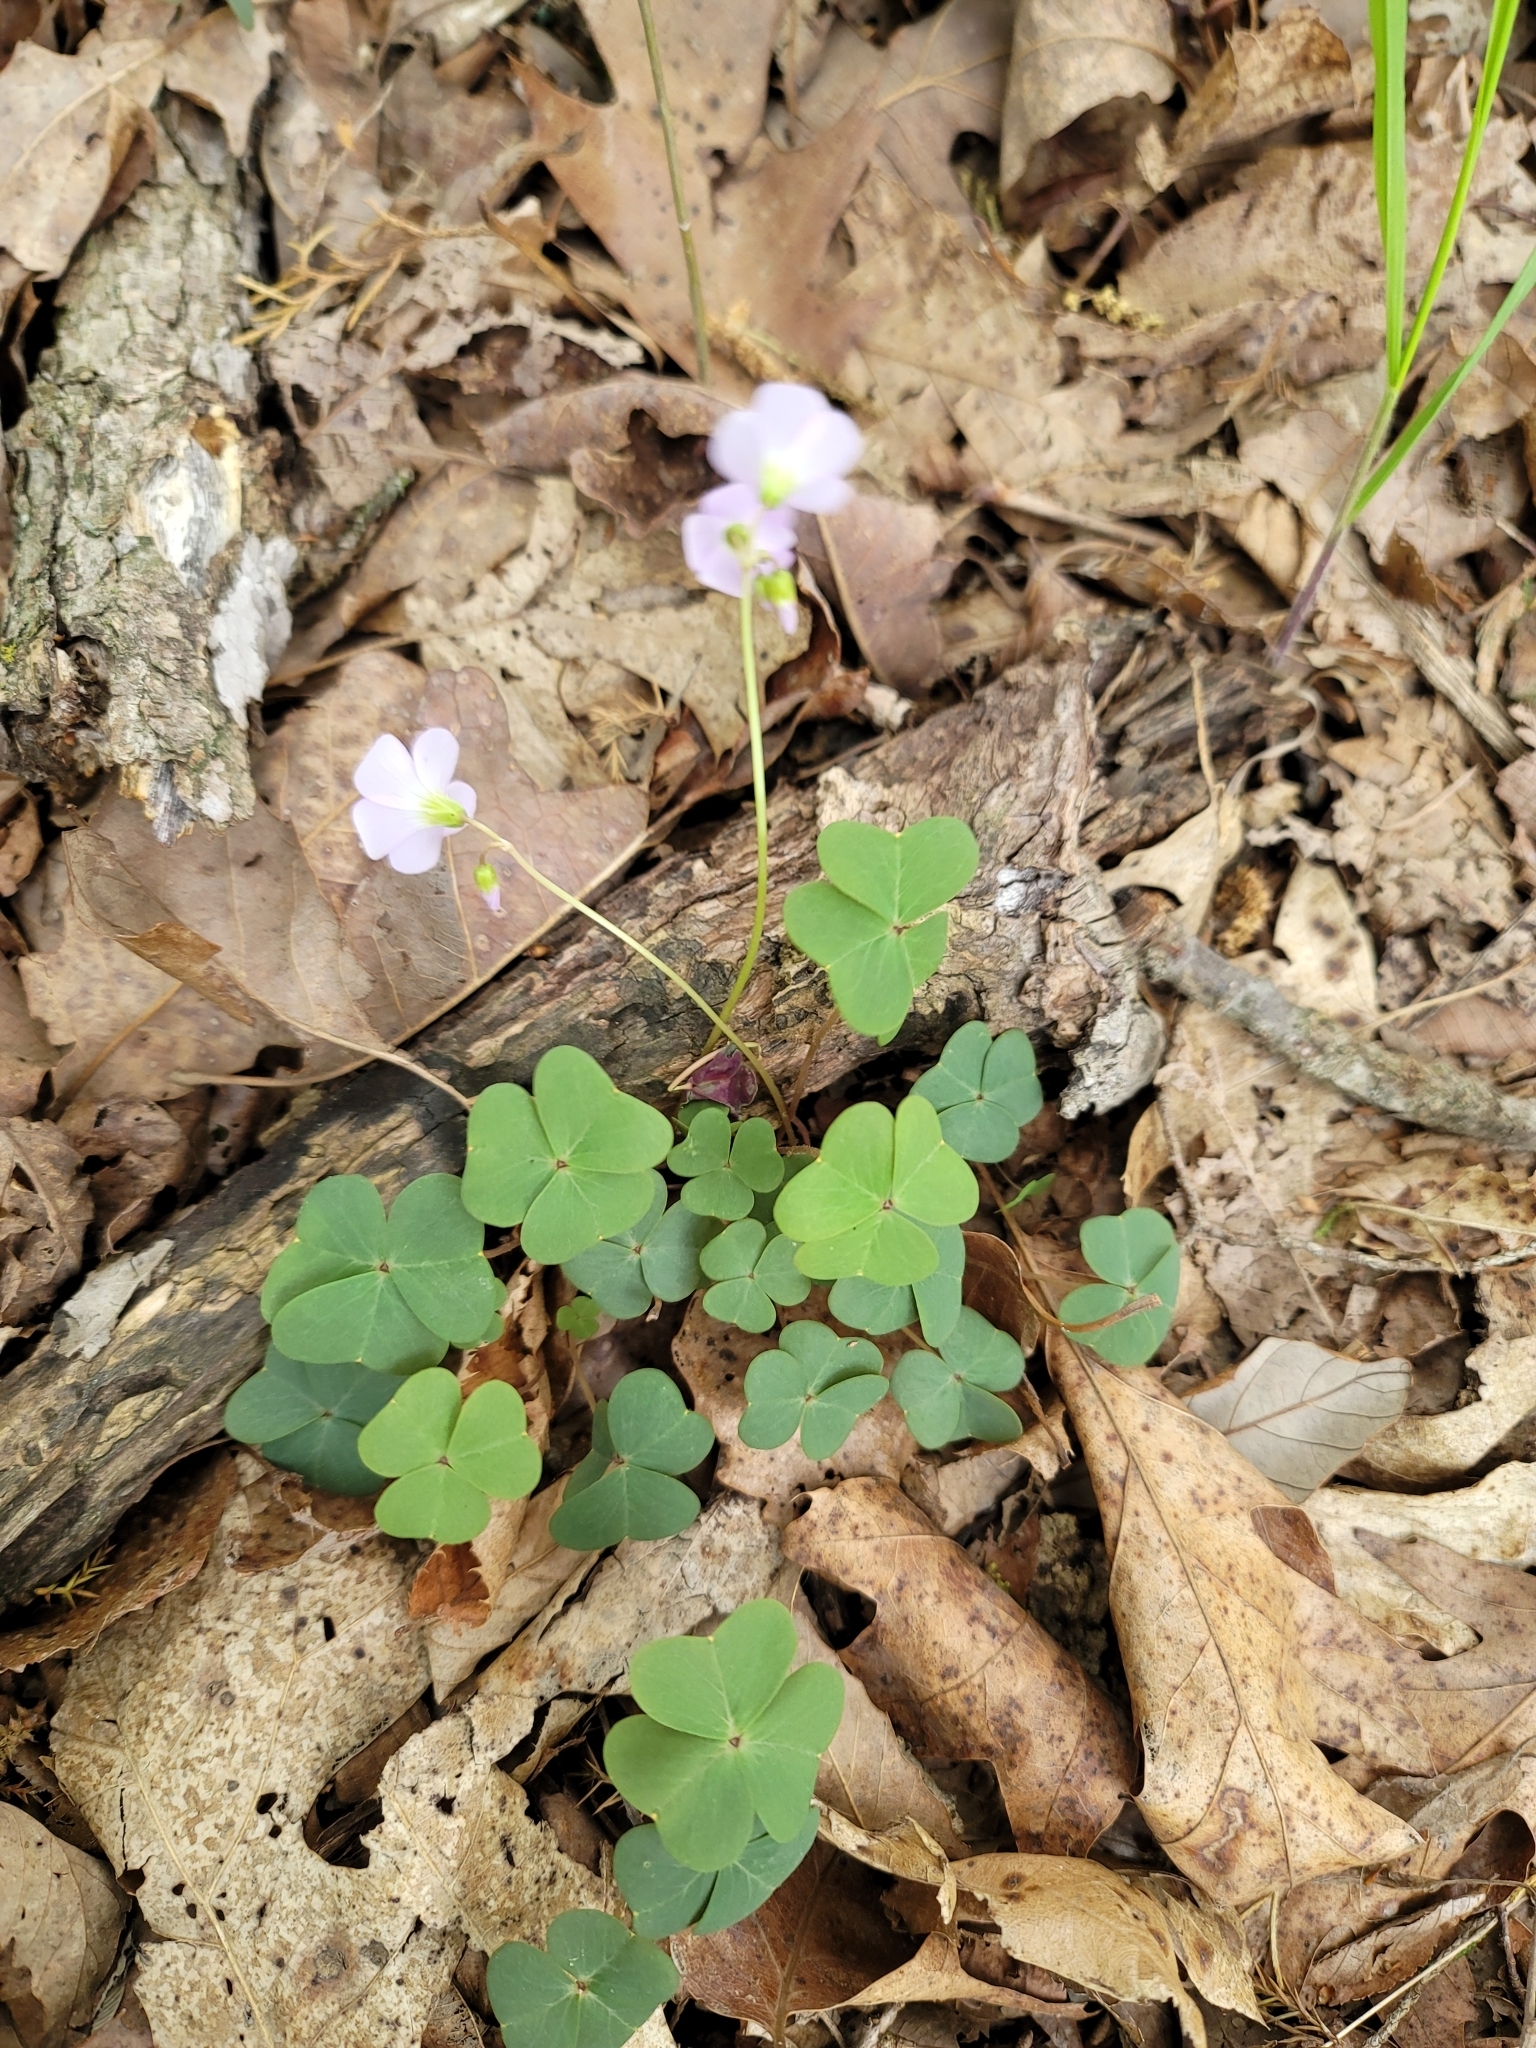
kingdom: Plantae
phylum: Tracheophyta
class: Magnoliopsida
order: Oxalidales
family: Oxalidaceae
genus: Oxalis
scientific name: Oxalis violacea
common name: Violet wood-sorrel
